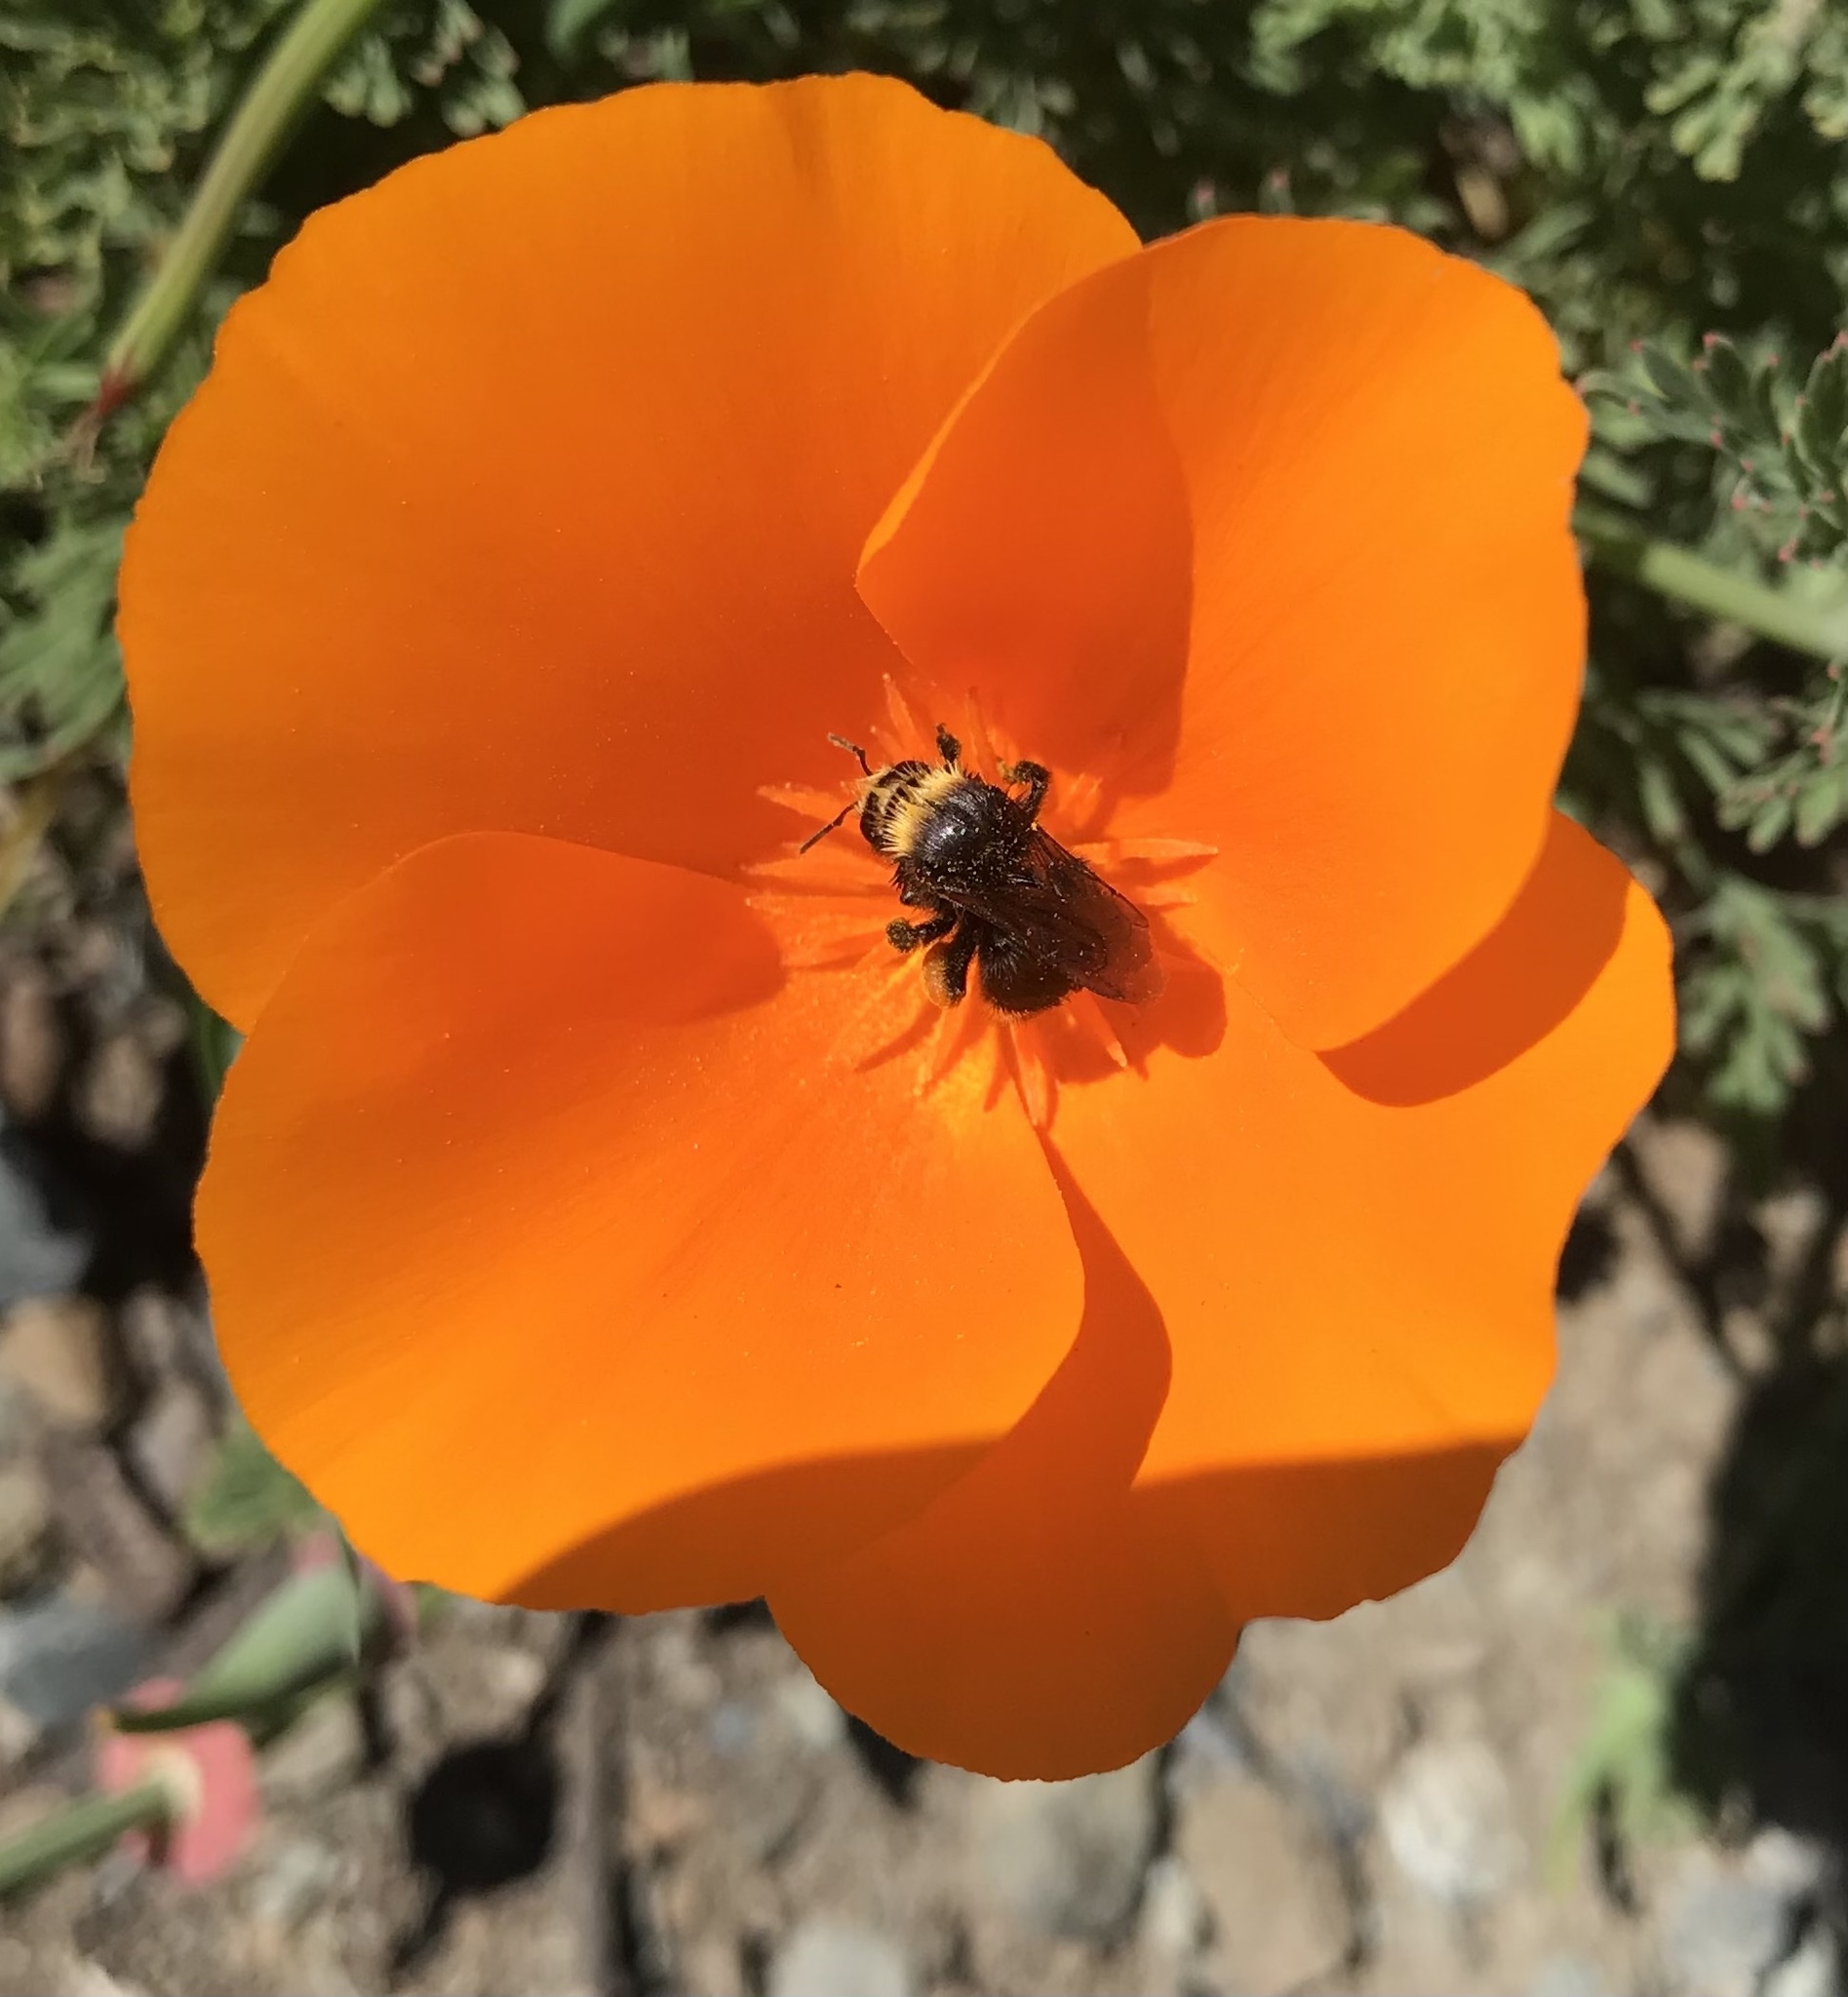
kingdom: Plantae
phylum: Tracheophyta
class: Magnoliopsida
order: Ranunculales
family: Papaveraceae
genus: Eschscholzia
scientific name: Eschscholzia californica
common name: California poppy
